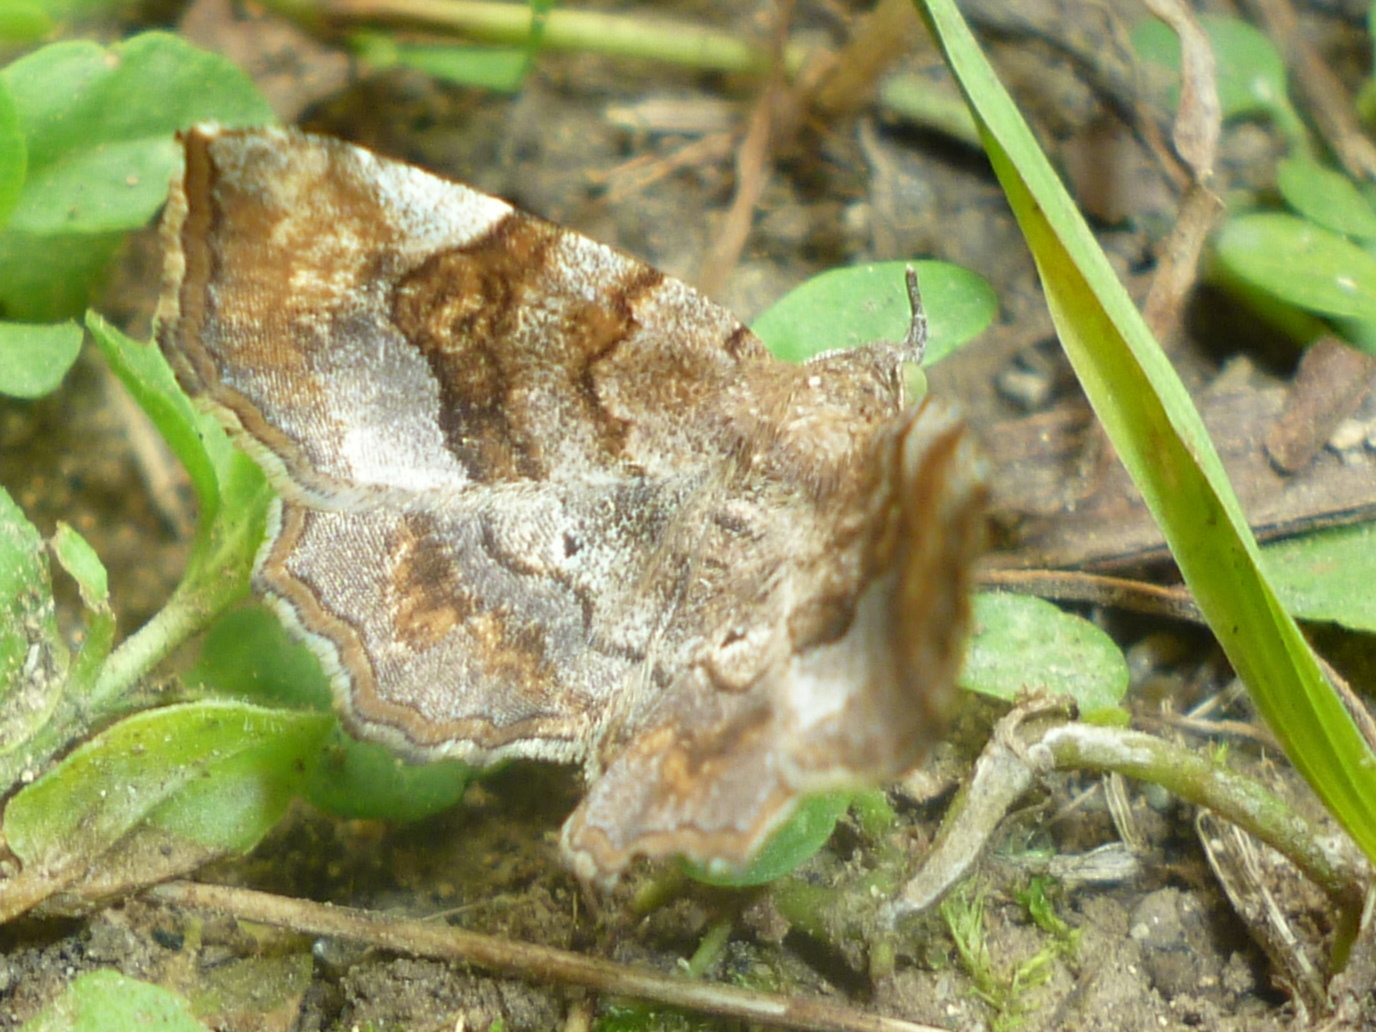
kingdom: Animalia
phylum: Arthropoda
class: Insecta
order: Lepidoptera
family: Erebidae
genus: Pangrapta
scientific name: Pangrapta decoralis
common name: Decorated owlet
